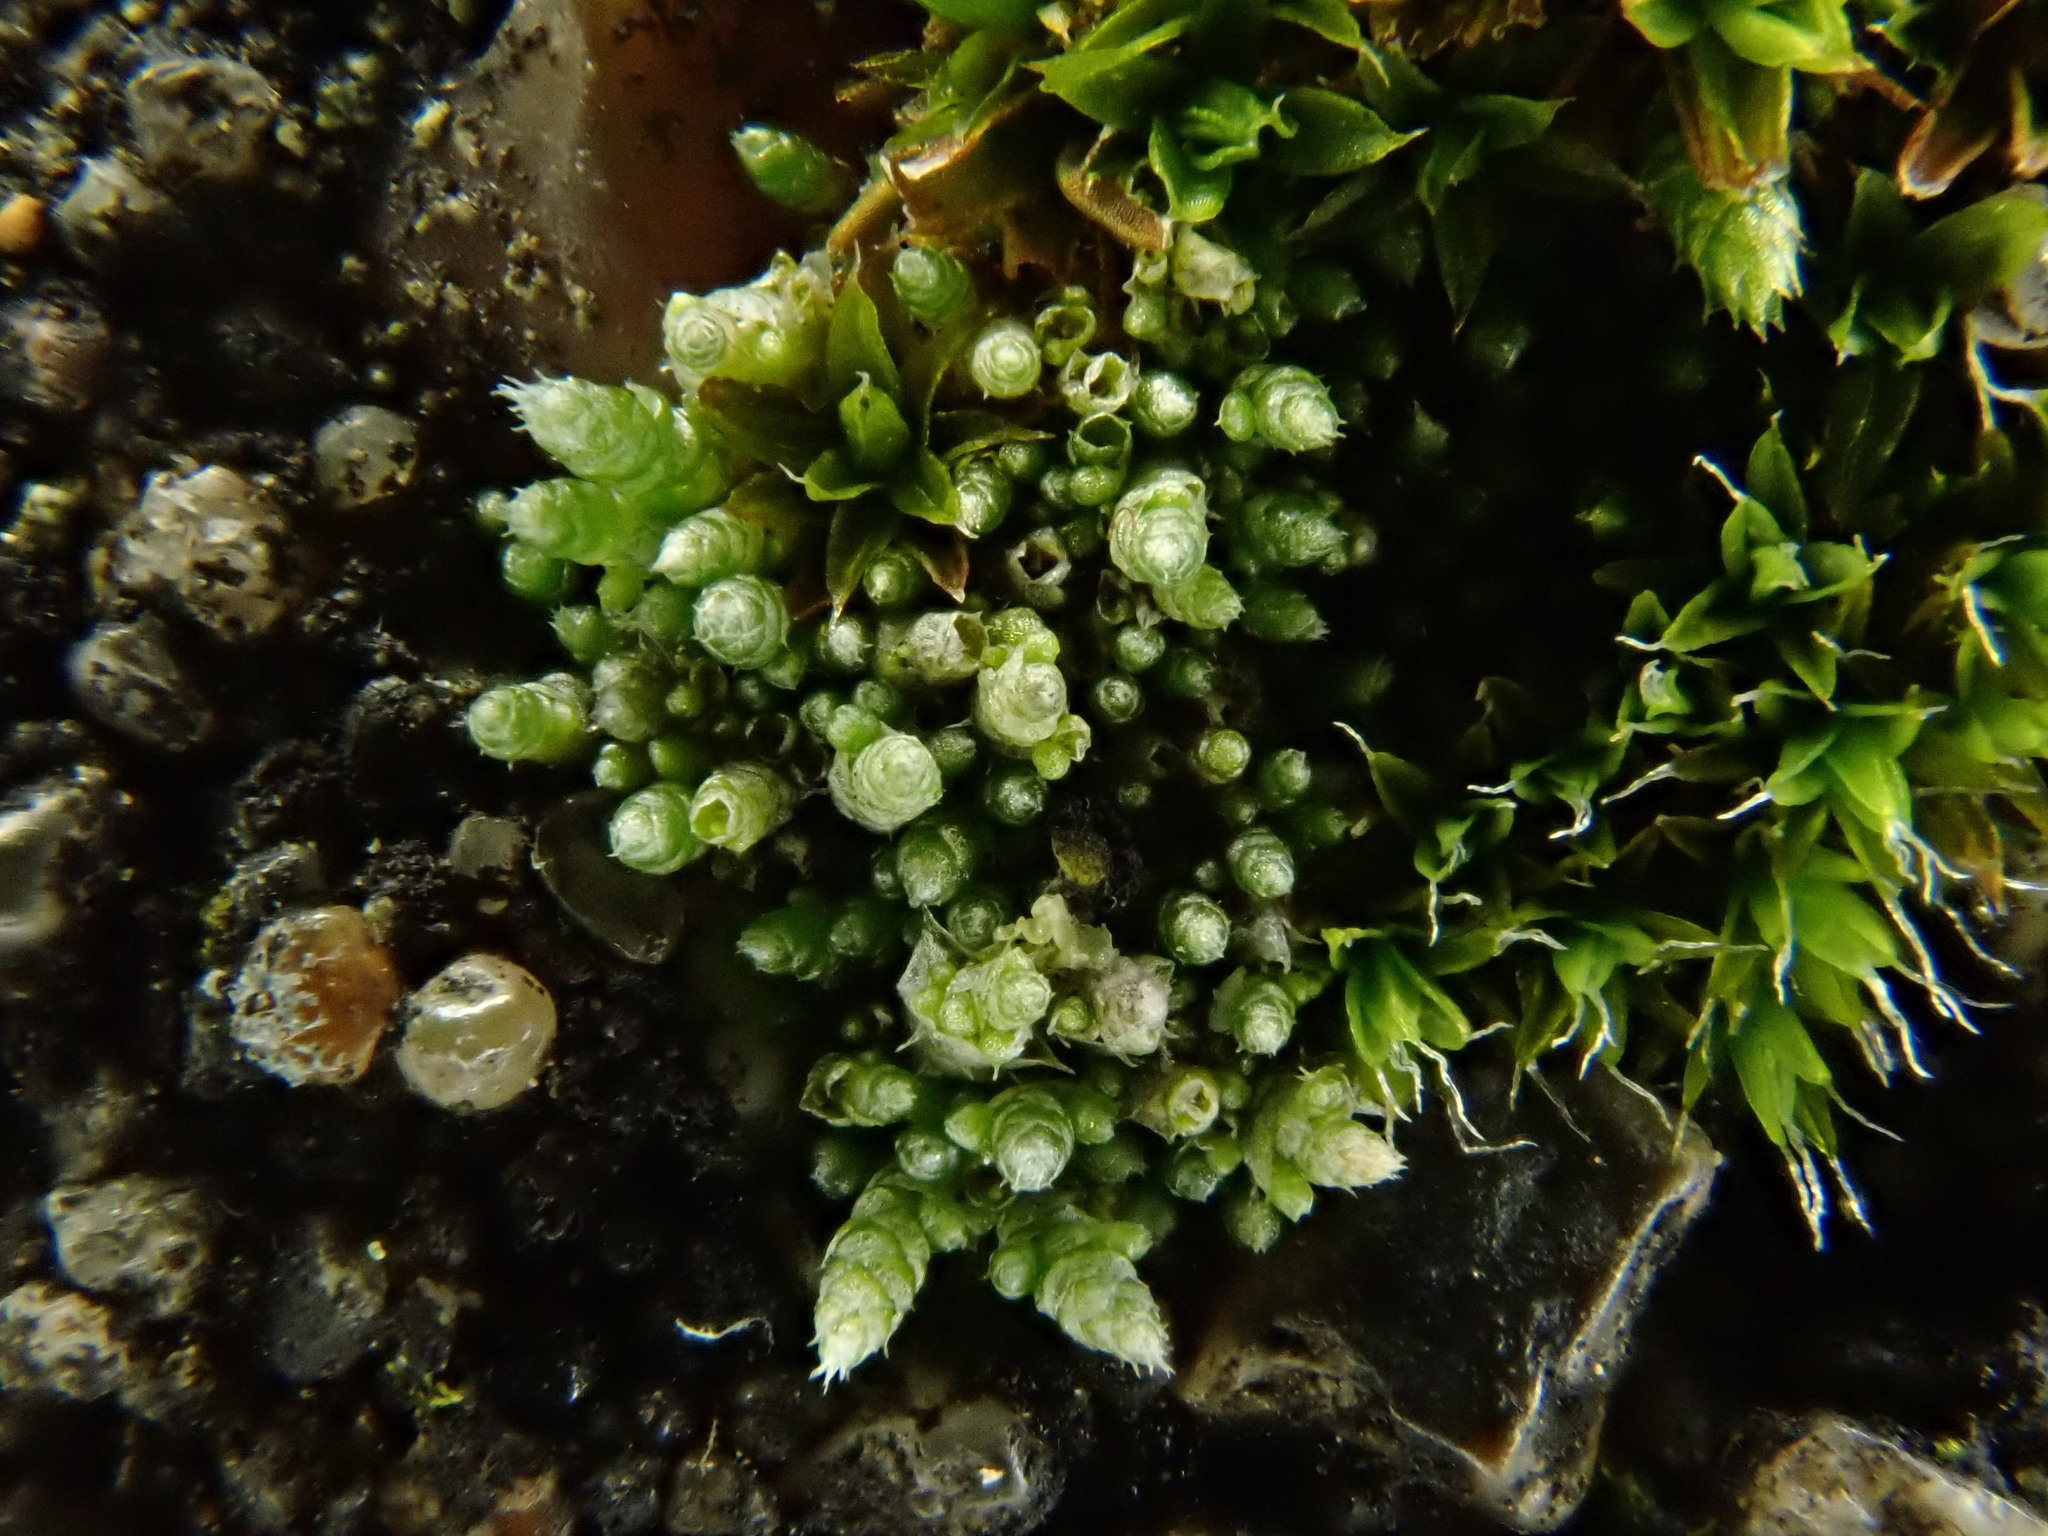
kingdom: Plantae
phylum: Bryophyta
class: Bryopsida
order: Bryales
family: Bryaceae
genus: Bryum
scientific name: Bryum argenteum
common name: Silver-moss
